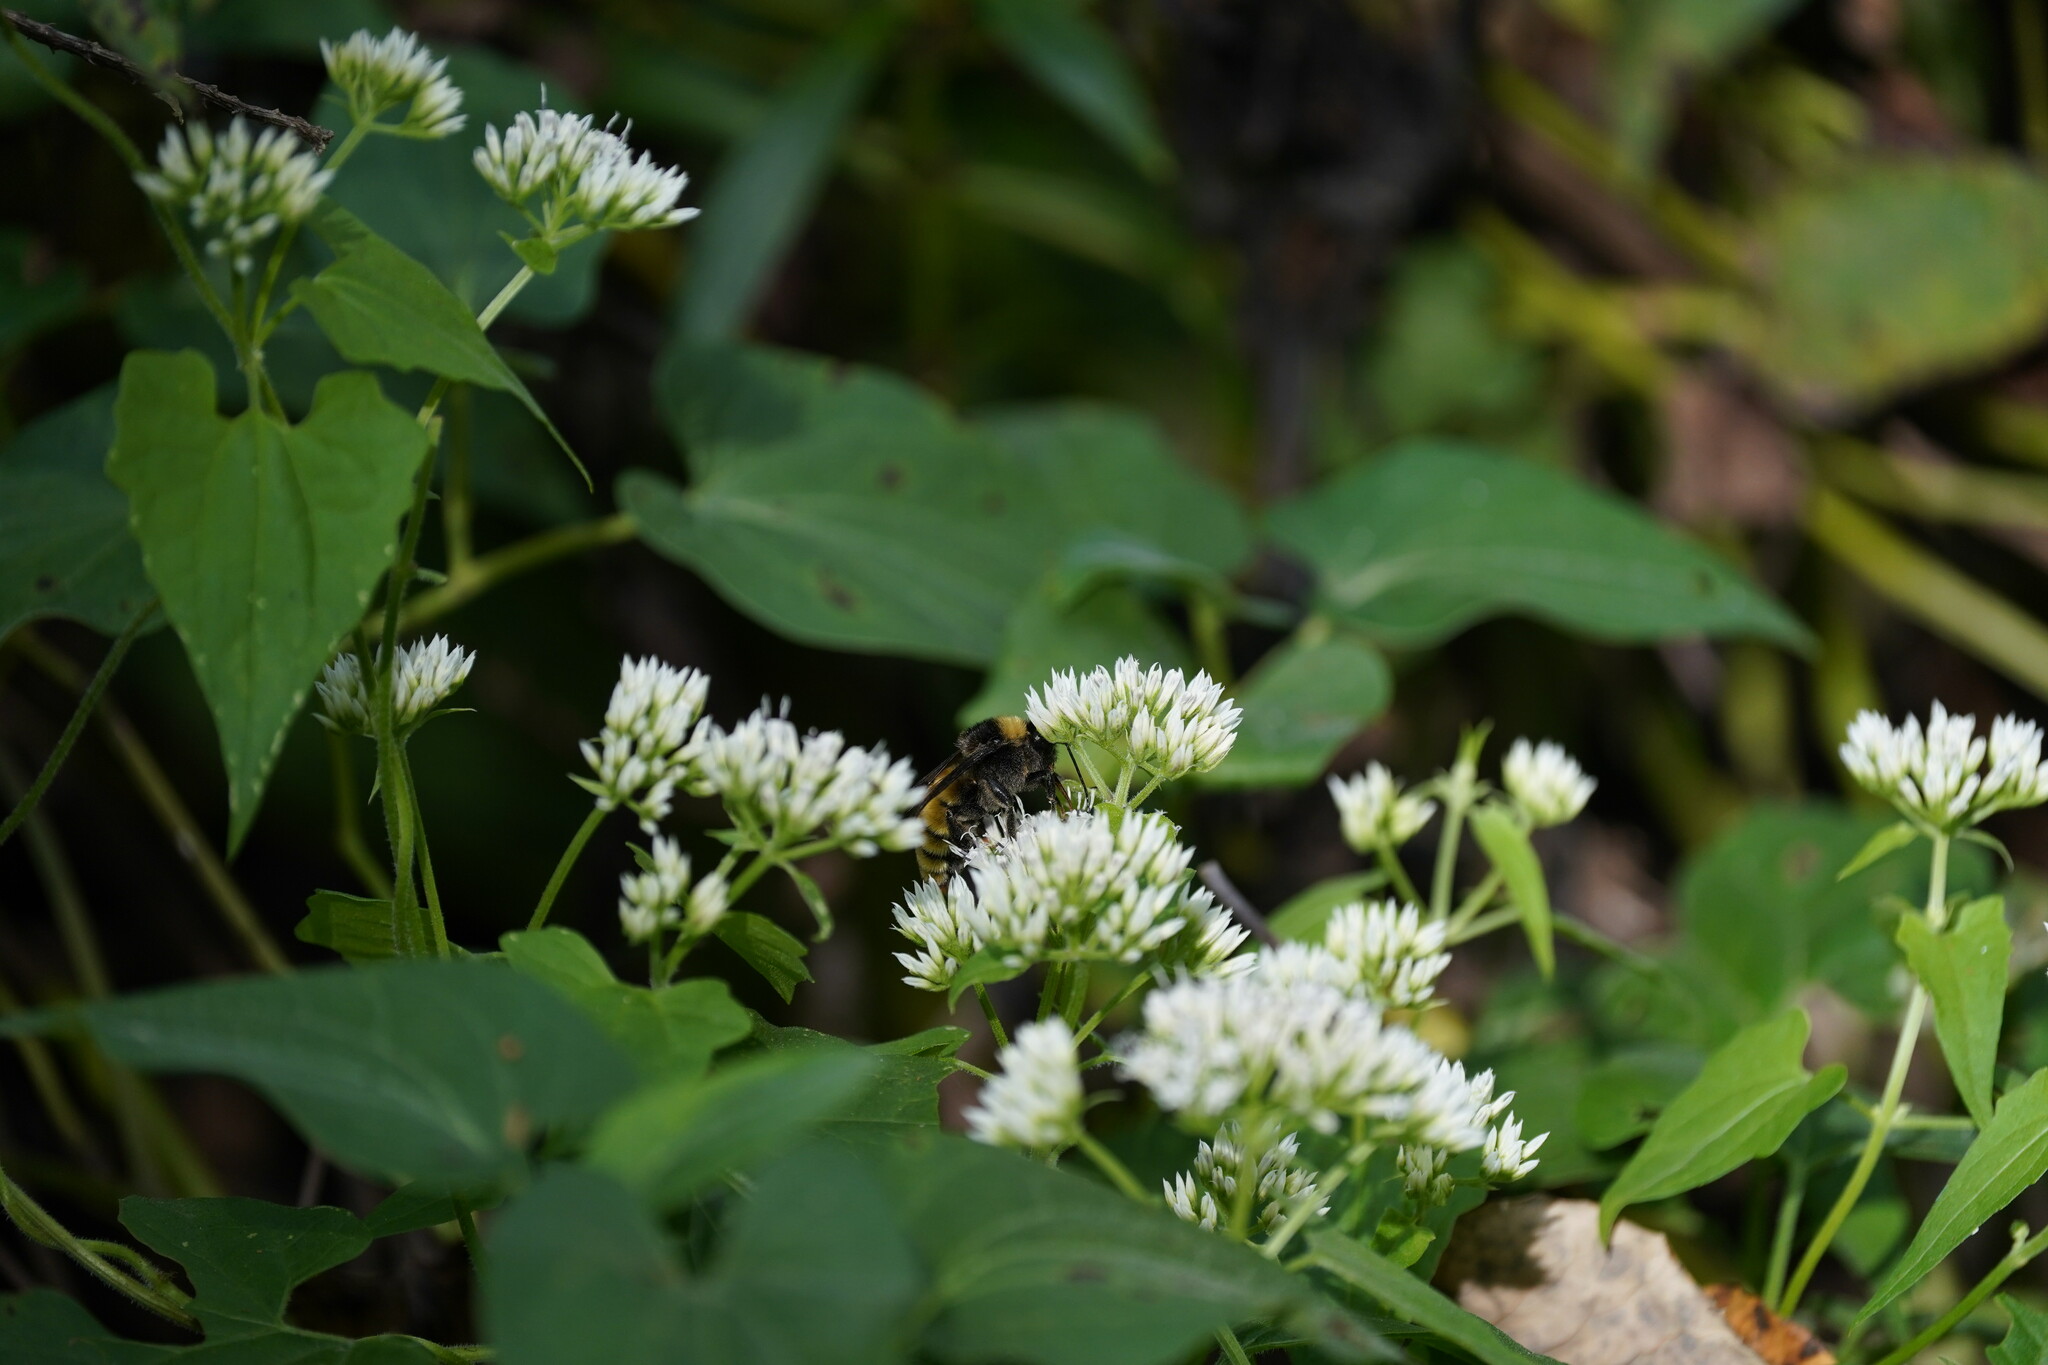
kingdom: Animalia
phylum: Arthropoda
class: Insecta
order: Hymenoptera
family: Apidae
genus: Bombus
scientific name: Bombus pensylvanicus
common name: Bumble bee
